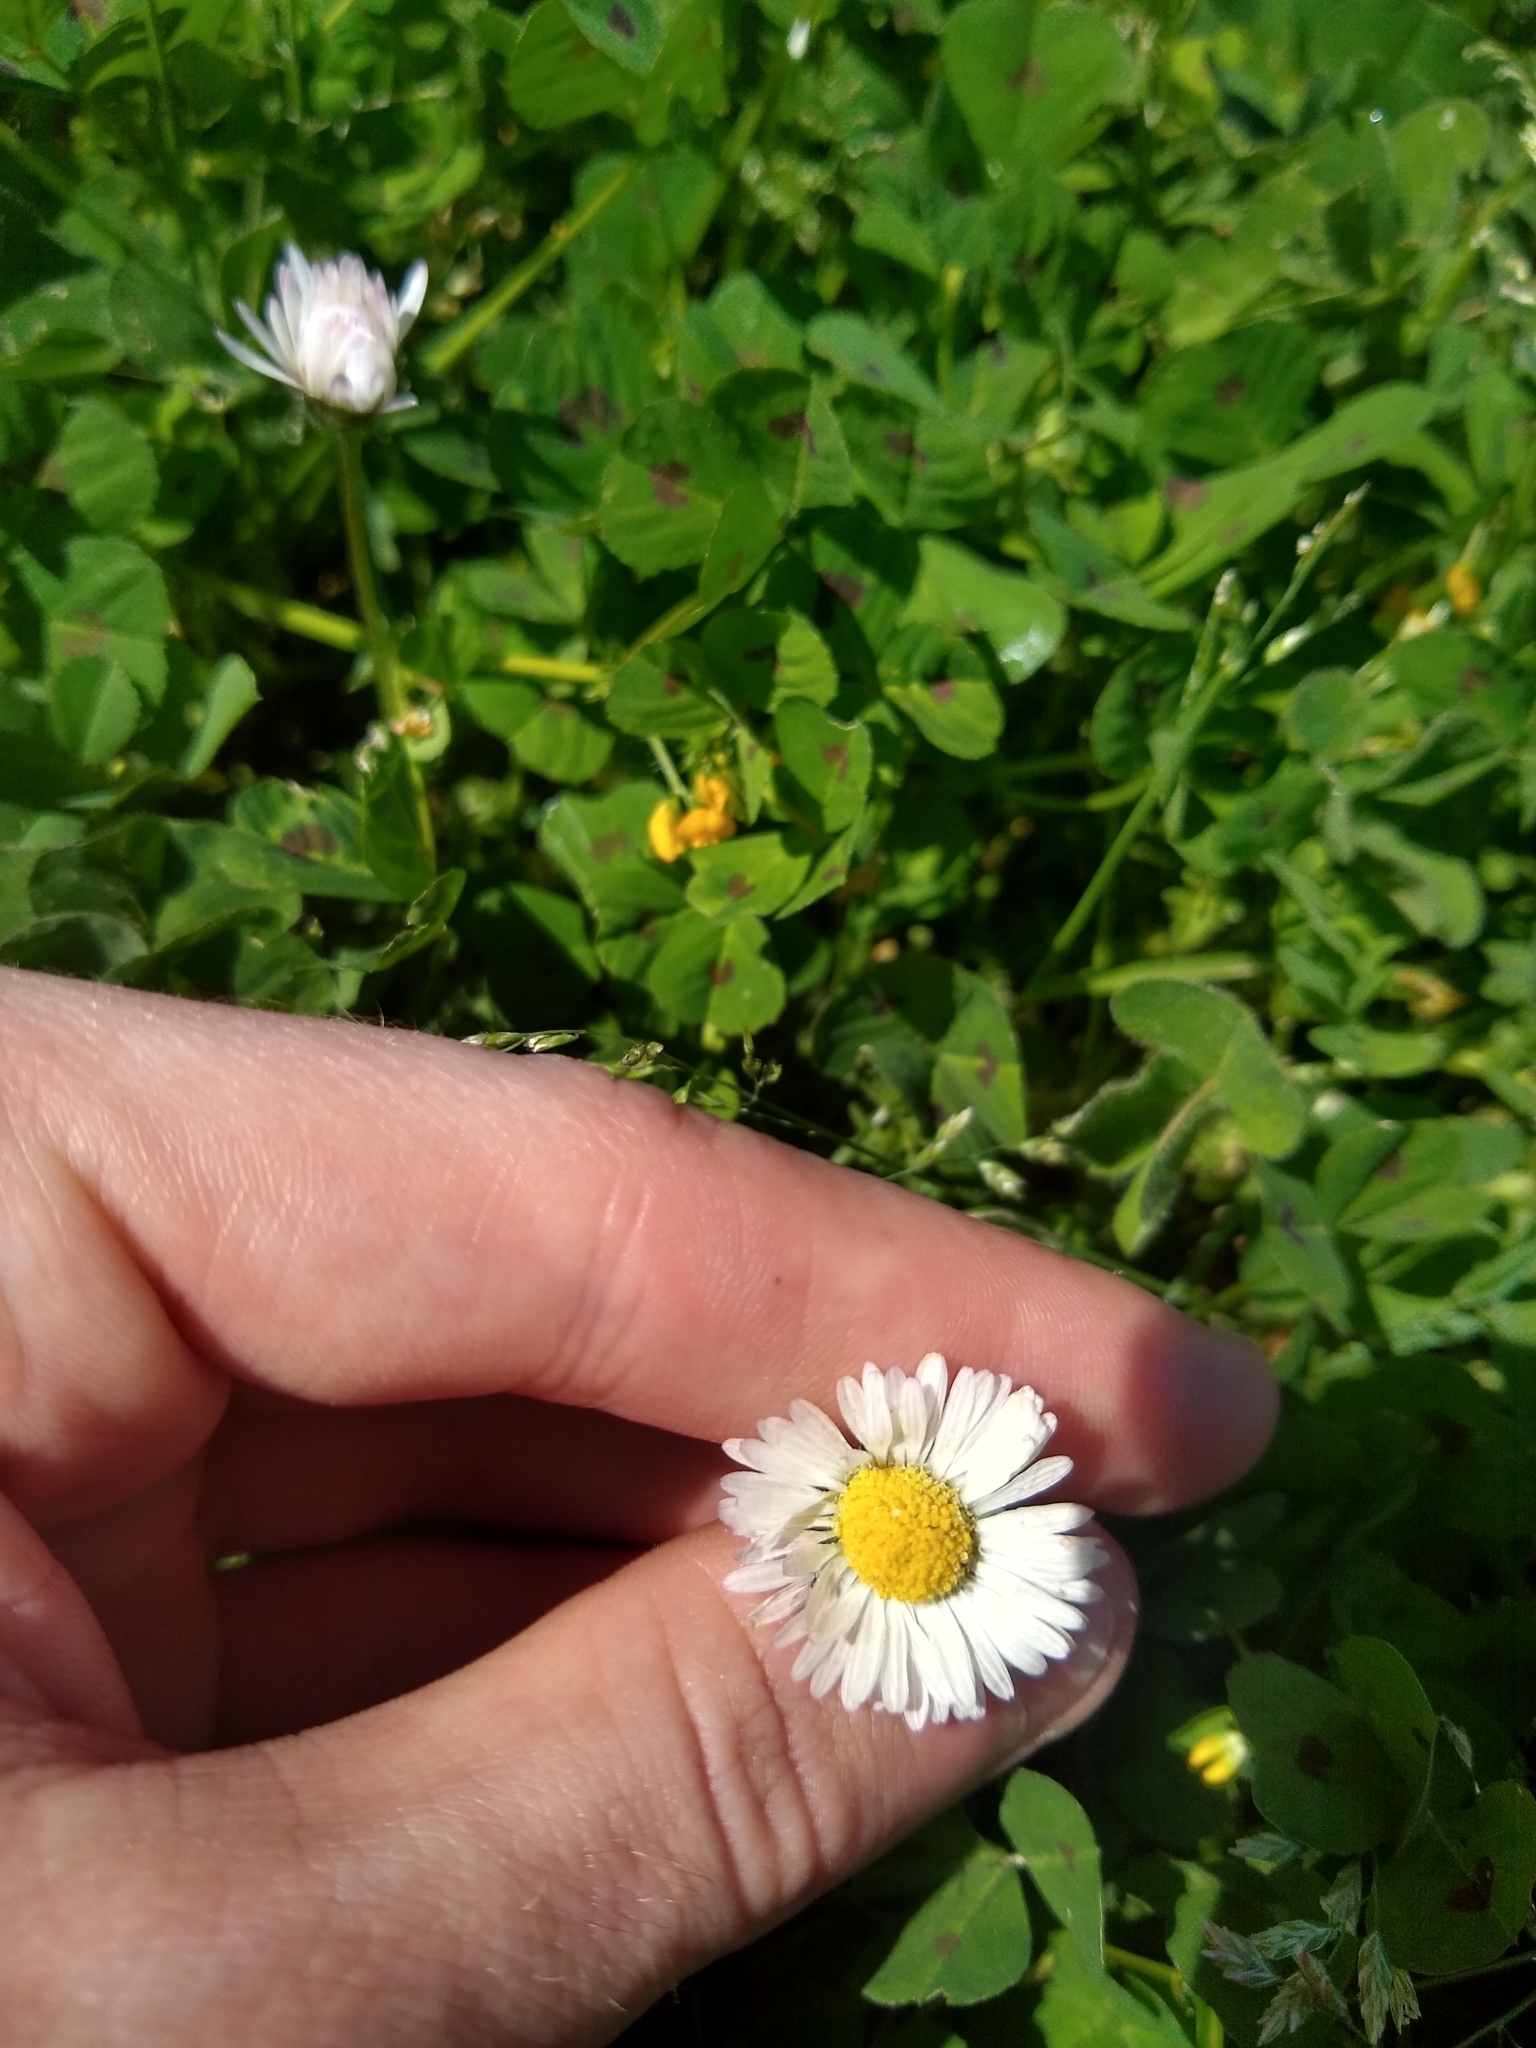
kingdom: Plantae
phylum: Tracheophyta
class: Magnoliopsida
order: Asterales
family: Asteraceae
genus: Bellis
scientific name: Bellis perennis
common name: Lawndaisy
